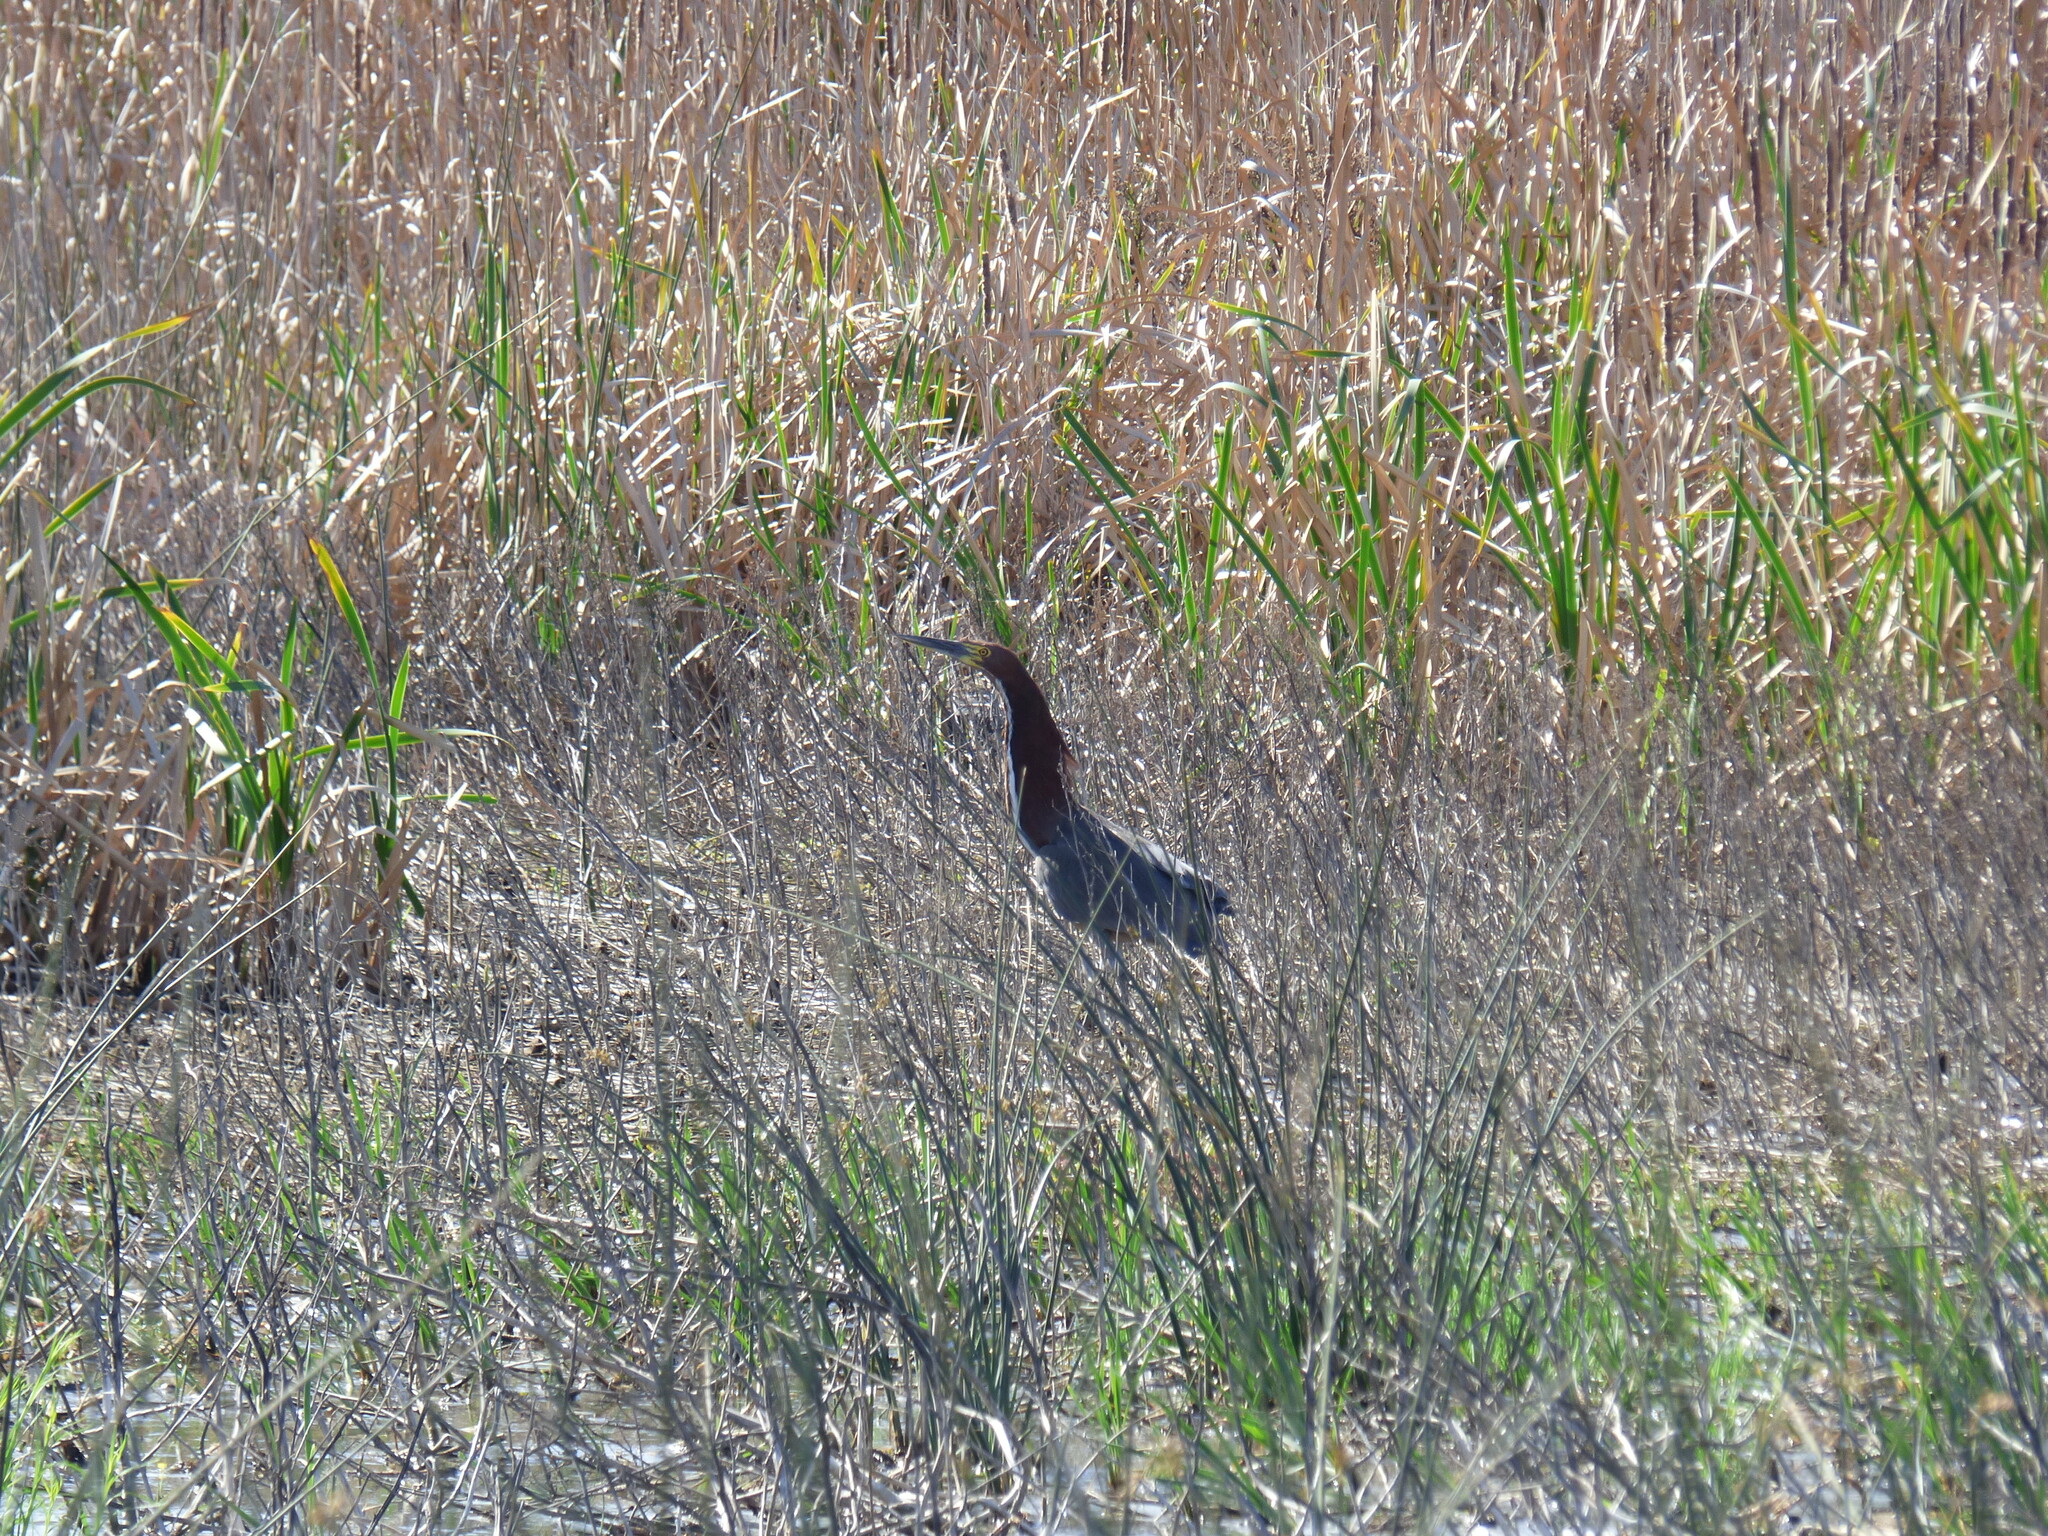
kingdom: Animalia
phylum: Chordata
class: Aves
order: Pelecaniformes
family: Ardeidae
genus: Tigrisoma
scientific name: Tigrisoma lineatum
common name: Rufescent tiger-heron
